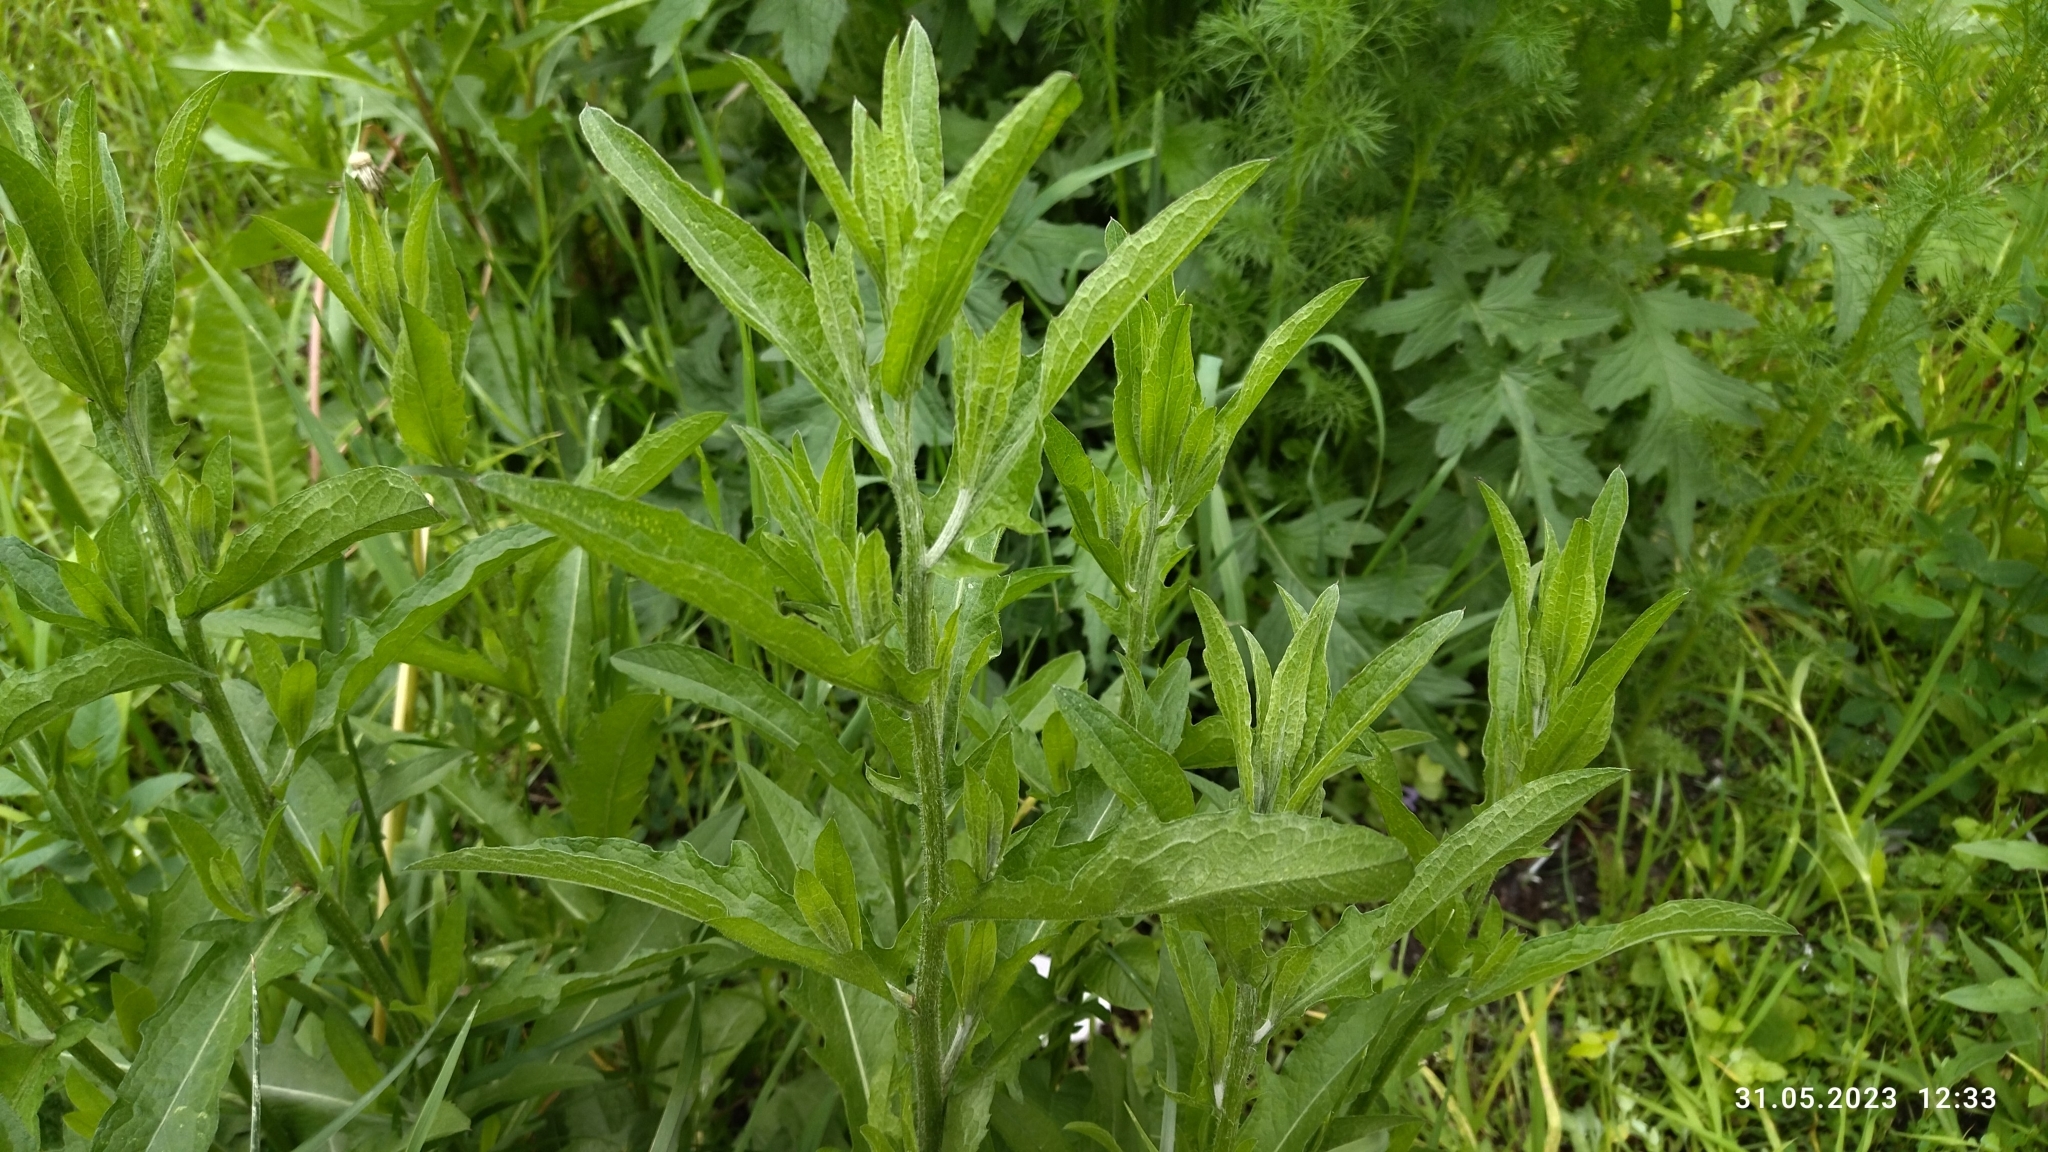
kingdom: Plantae
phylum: Tracheophyta
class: Magnoliopsida
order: Asterales
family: Asteraceae
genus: Centaurea
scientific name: Centaurea jacea
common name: Brown knapweed
